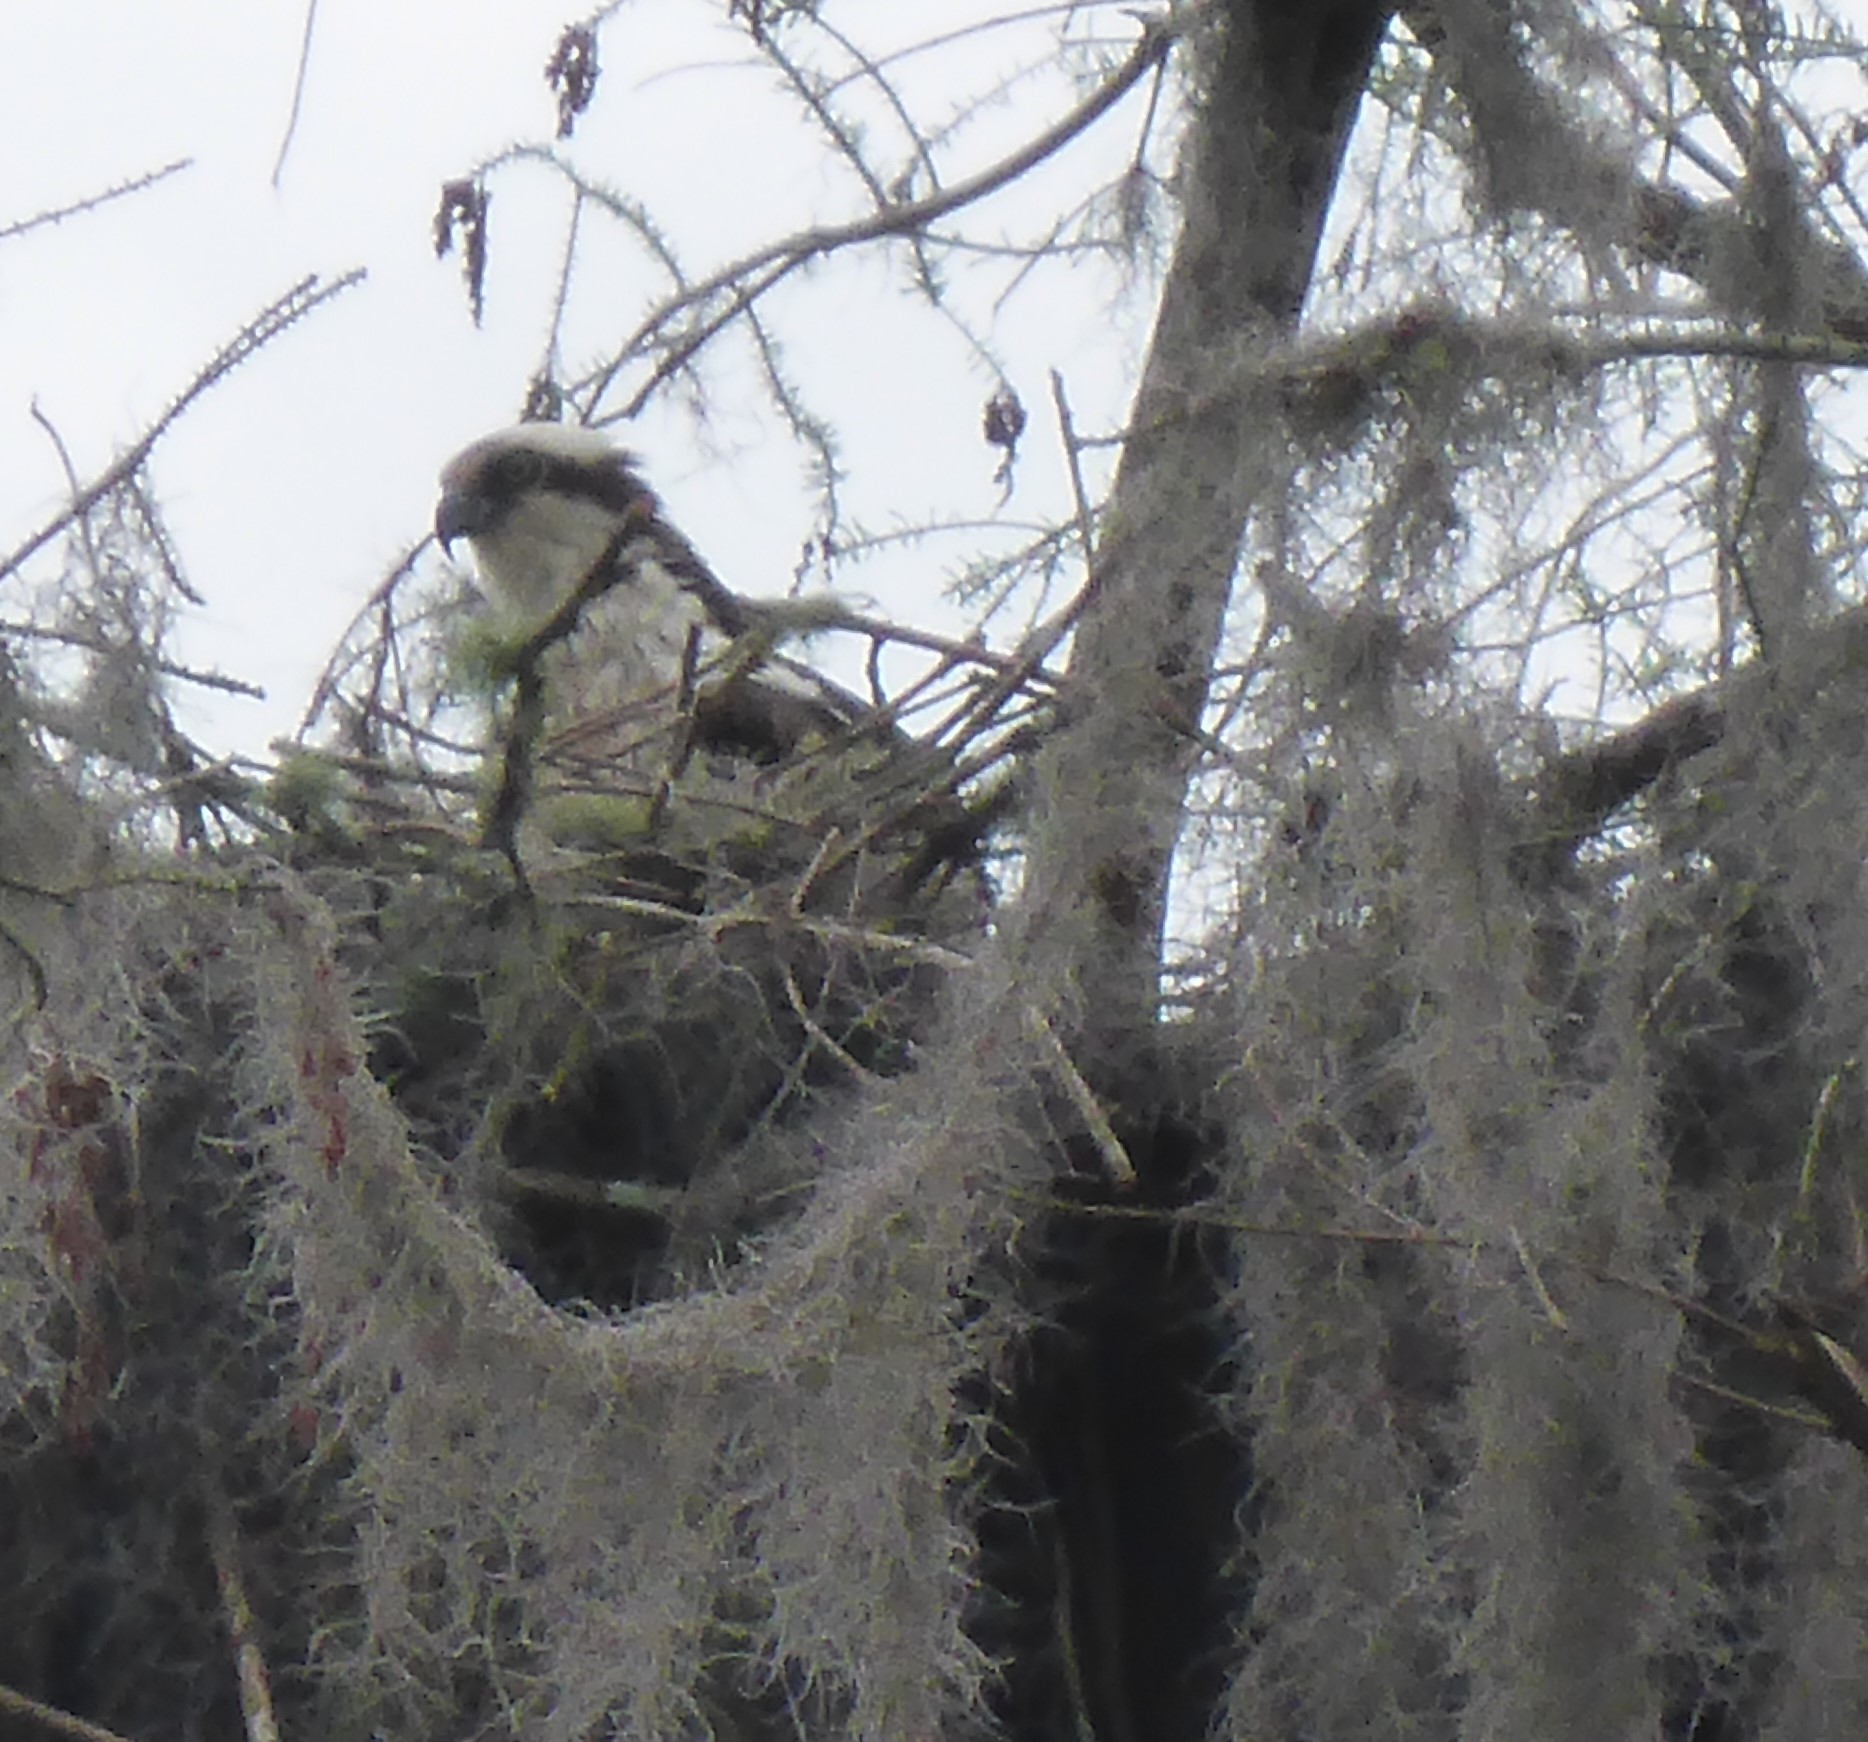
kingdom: Animalia
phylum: Chordata
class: Aves
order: Accipitriformes
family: Pandionidae
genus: Pandion
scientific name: Pandion haliaetus
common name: Osprey
